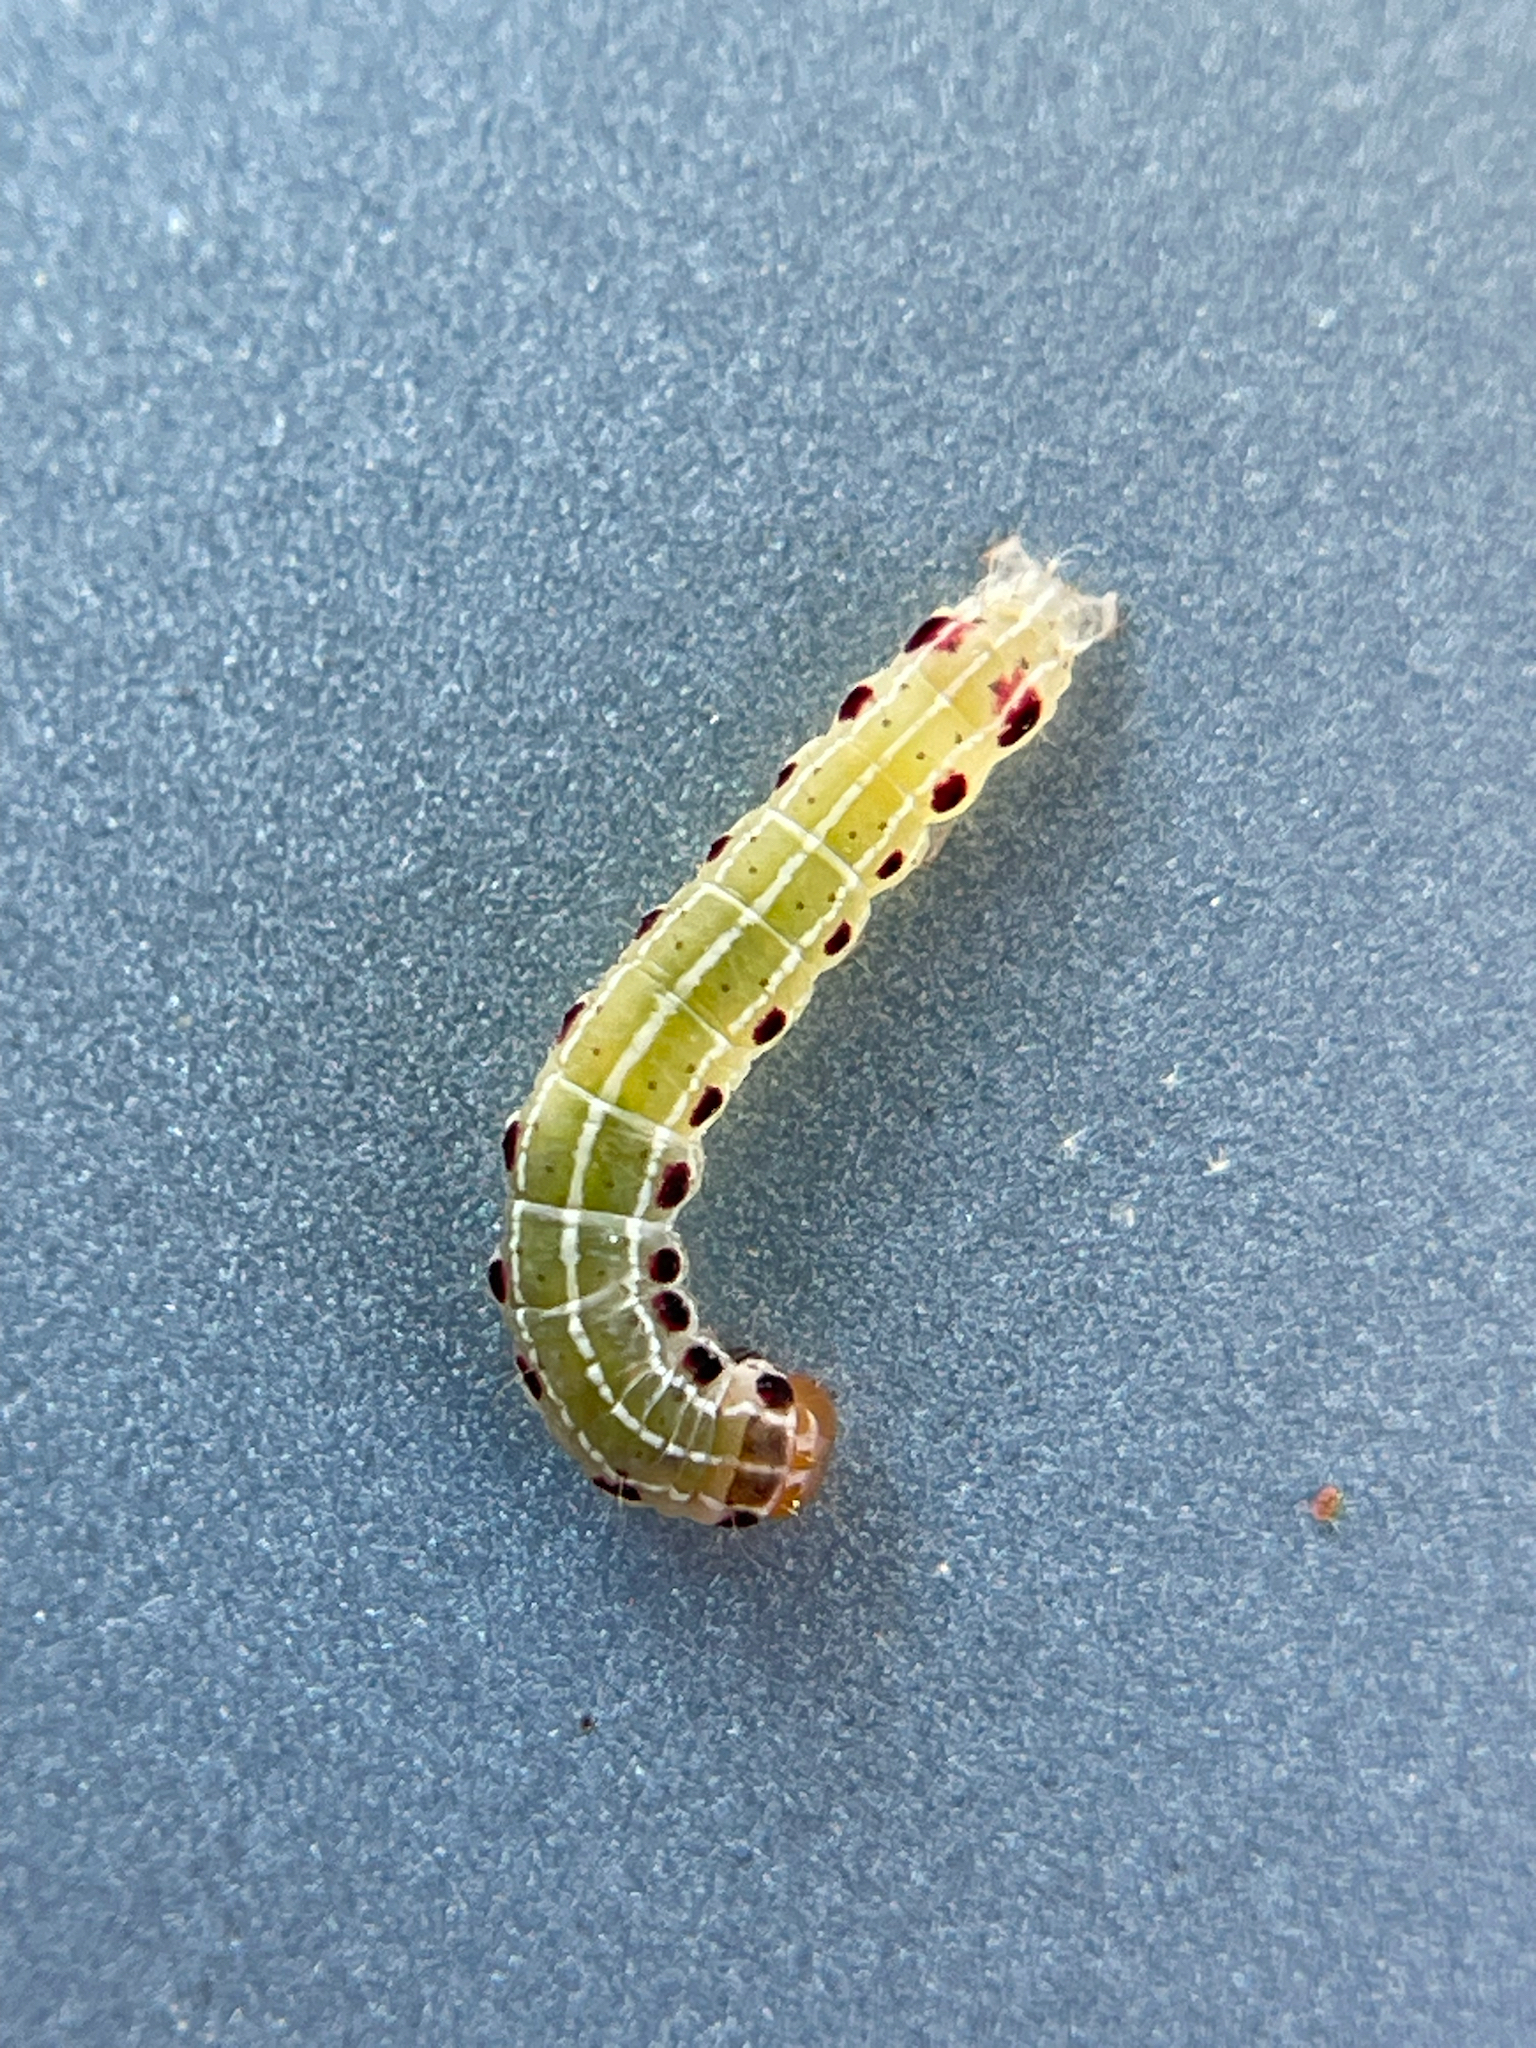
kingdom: Animalia
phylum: Arthropoda
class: Insecta
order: Lepidoptera
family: Noctuidae
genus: Achatia
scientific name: Achatia confusa
